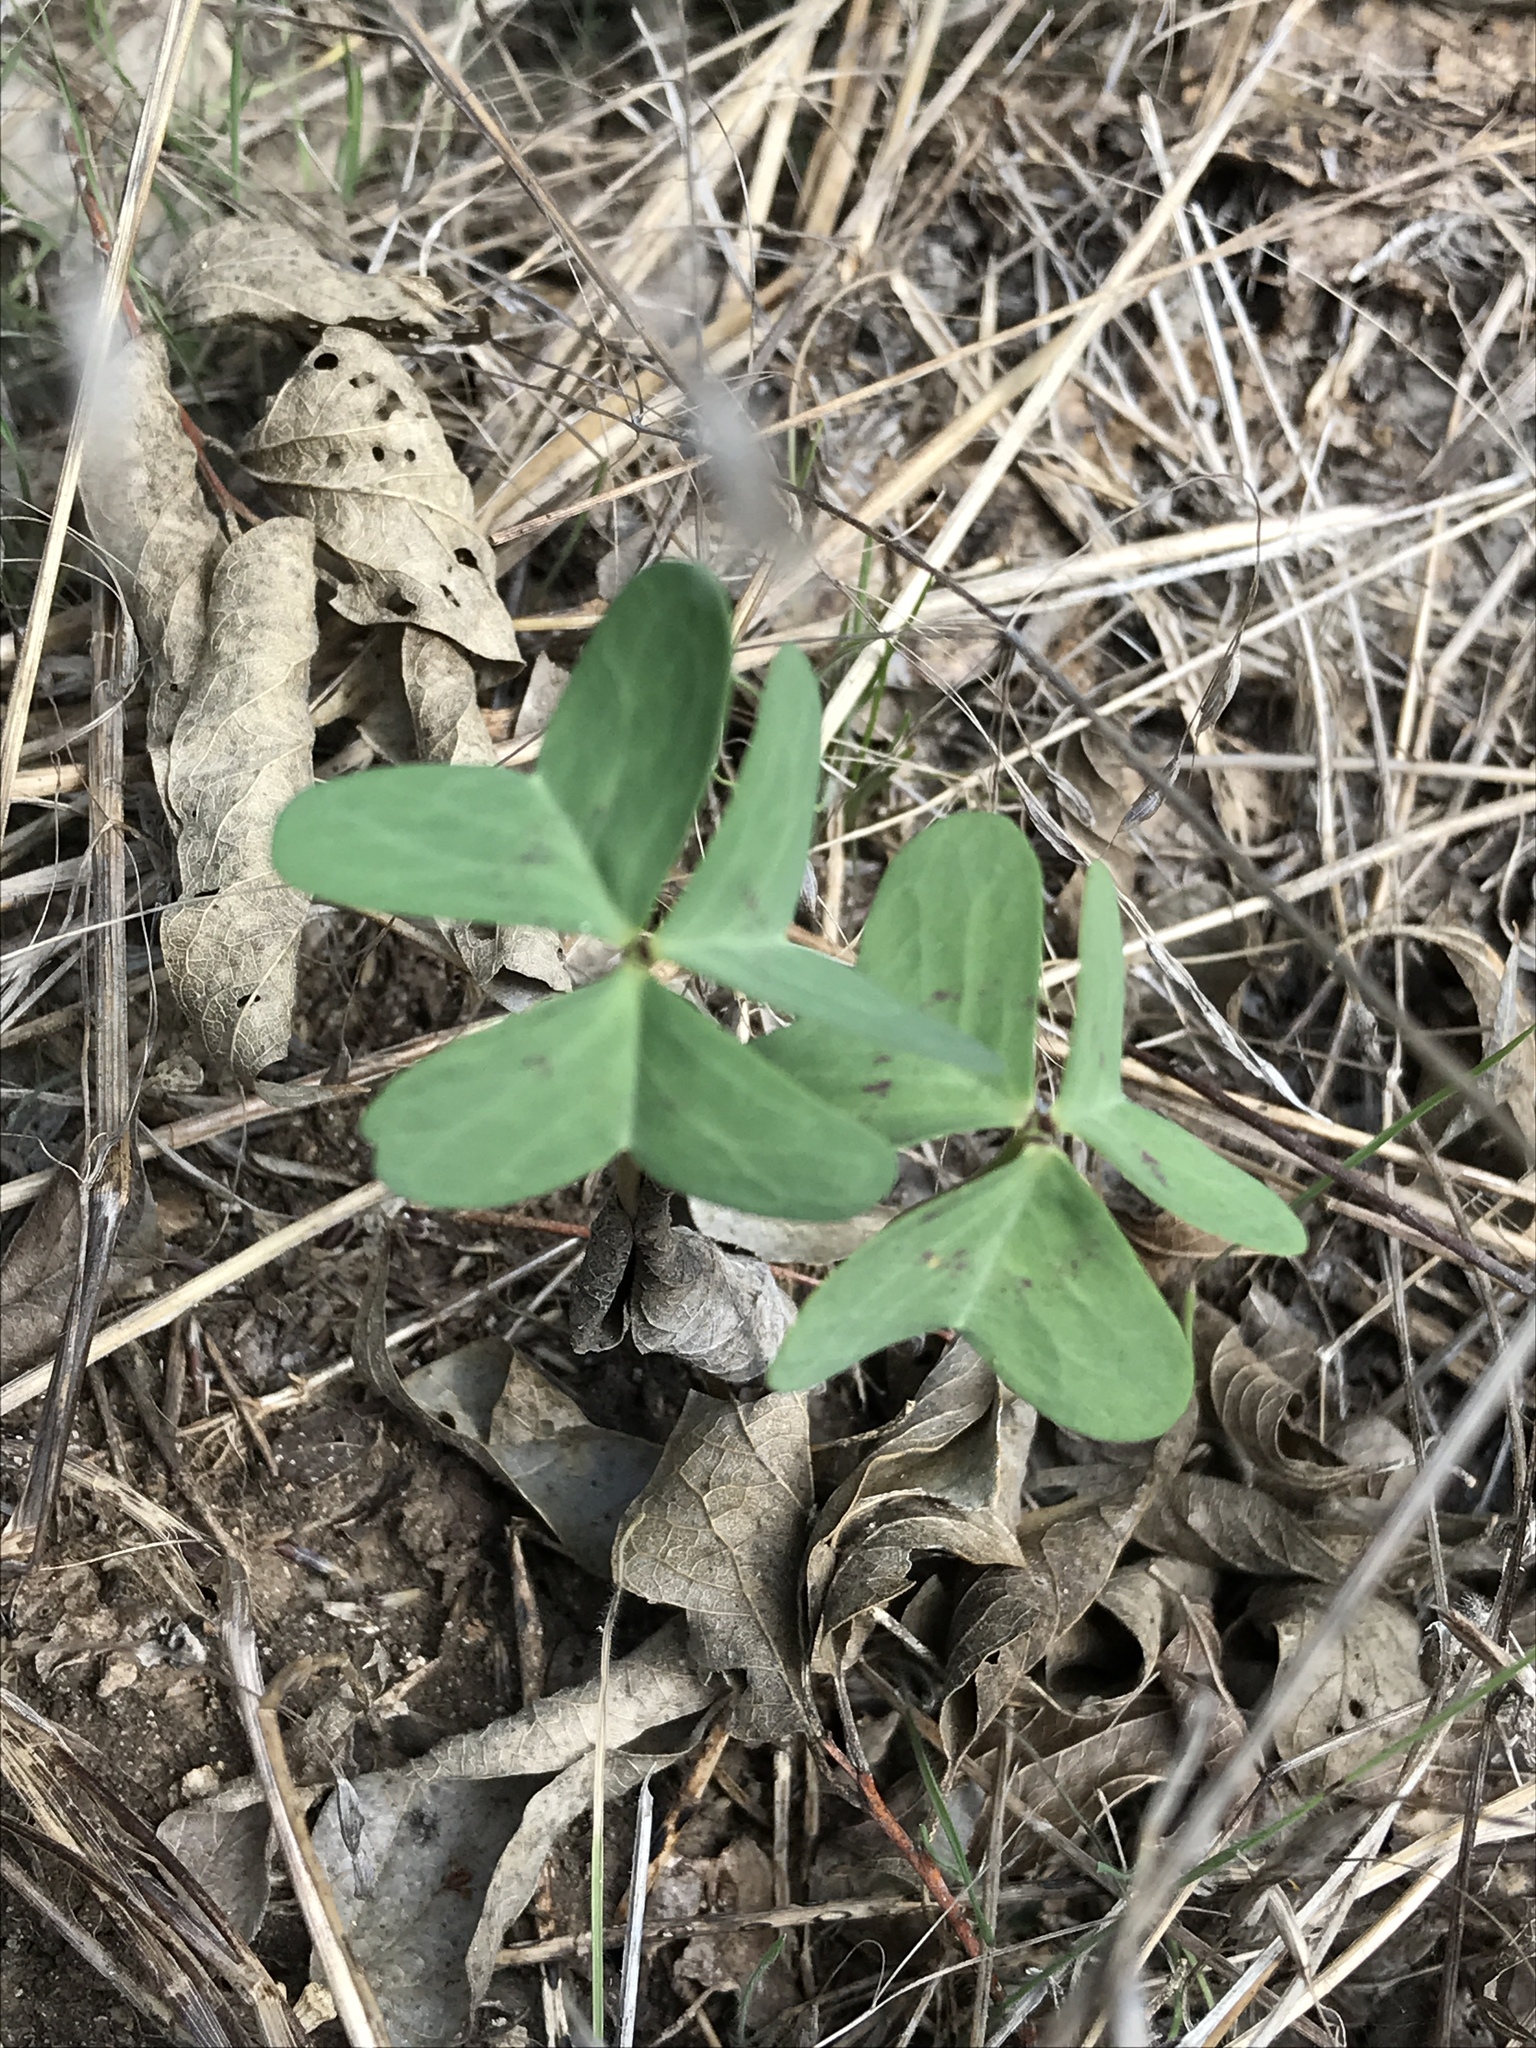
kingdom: Plantae
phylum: Tracheophyta
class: Magnoliopsida
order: Oxalidales
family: Oxalidaceae
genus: Oxalis
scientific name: Oxalis drummondii
